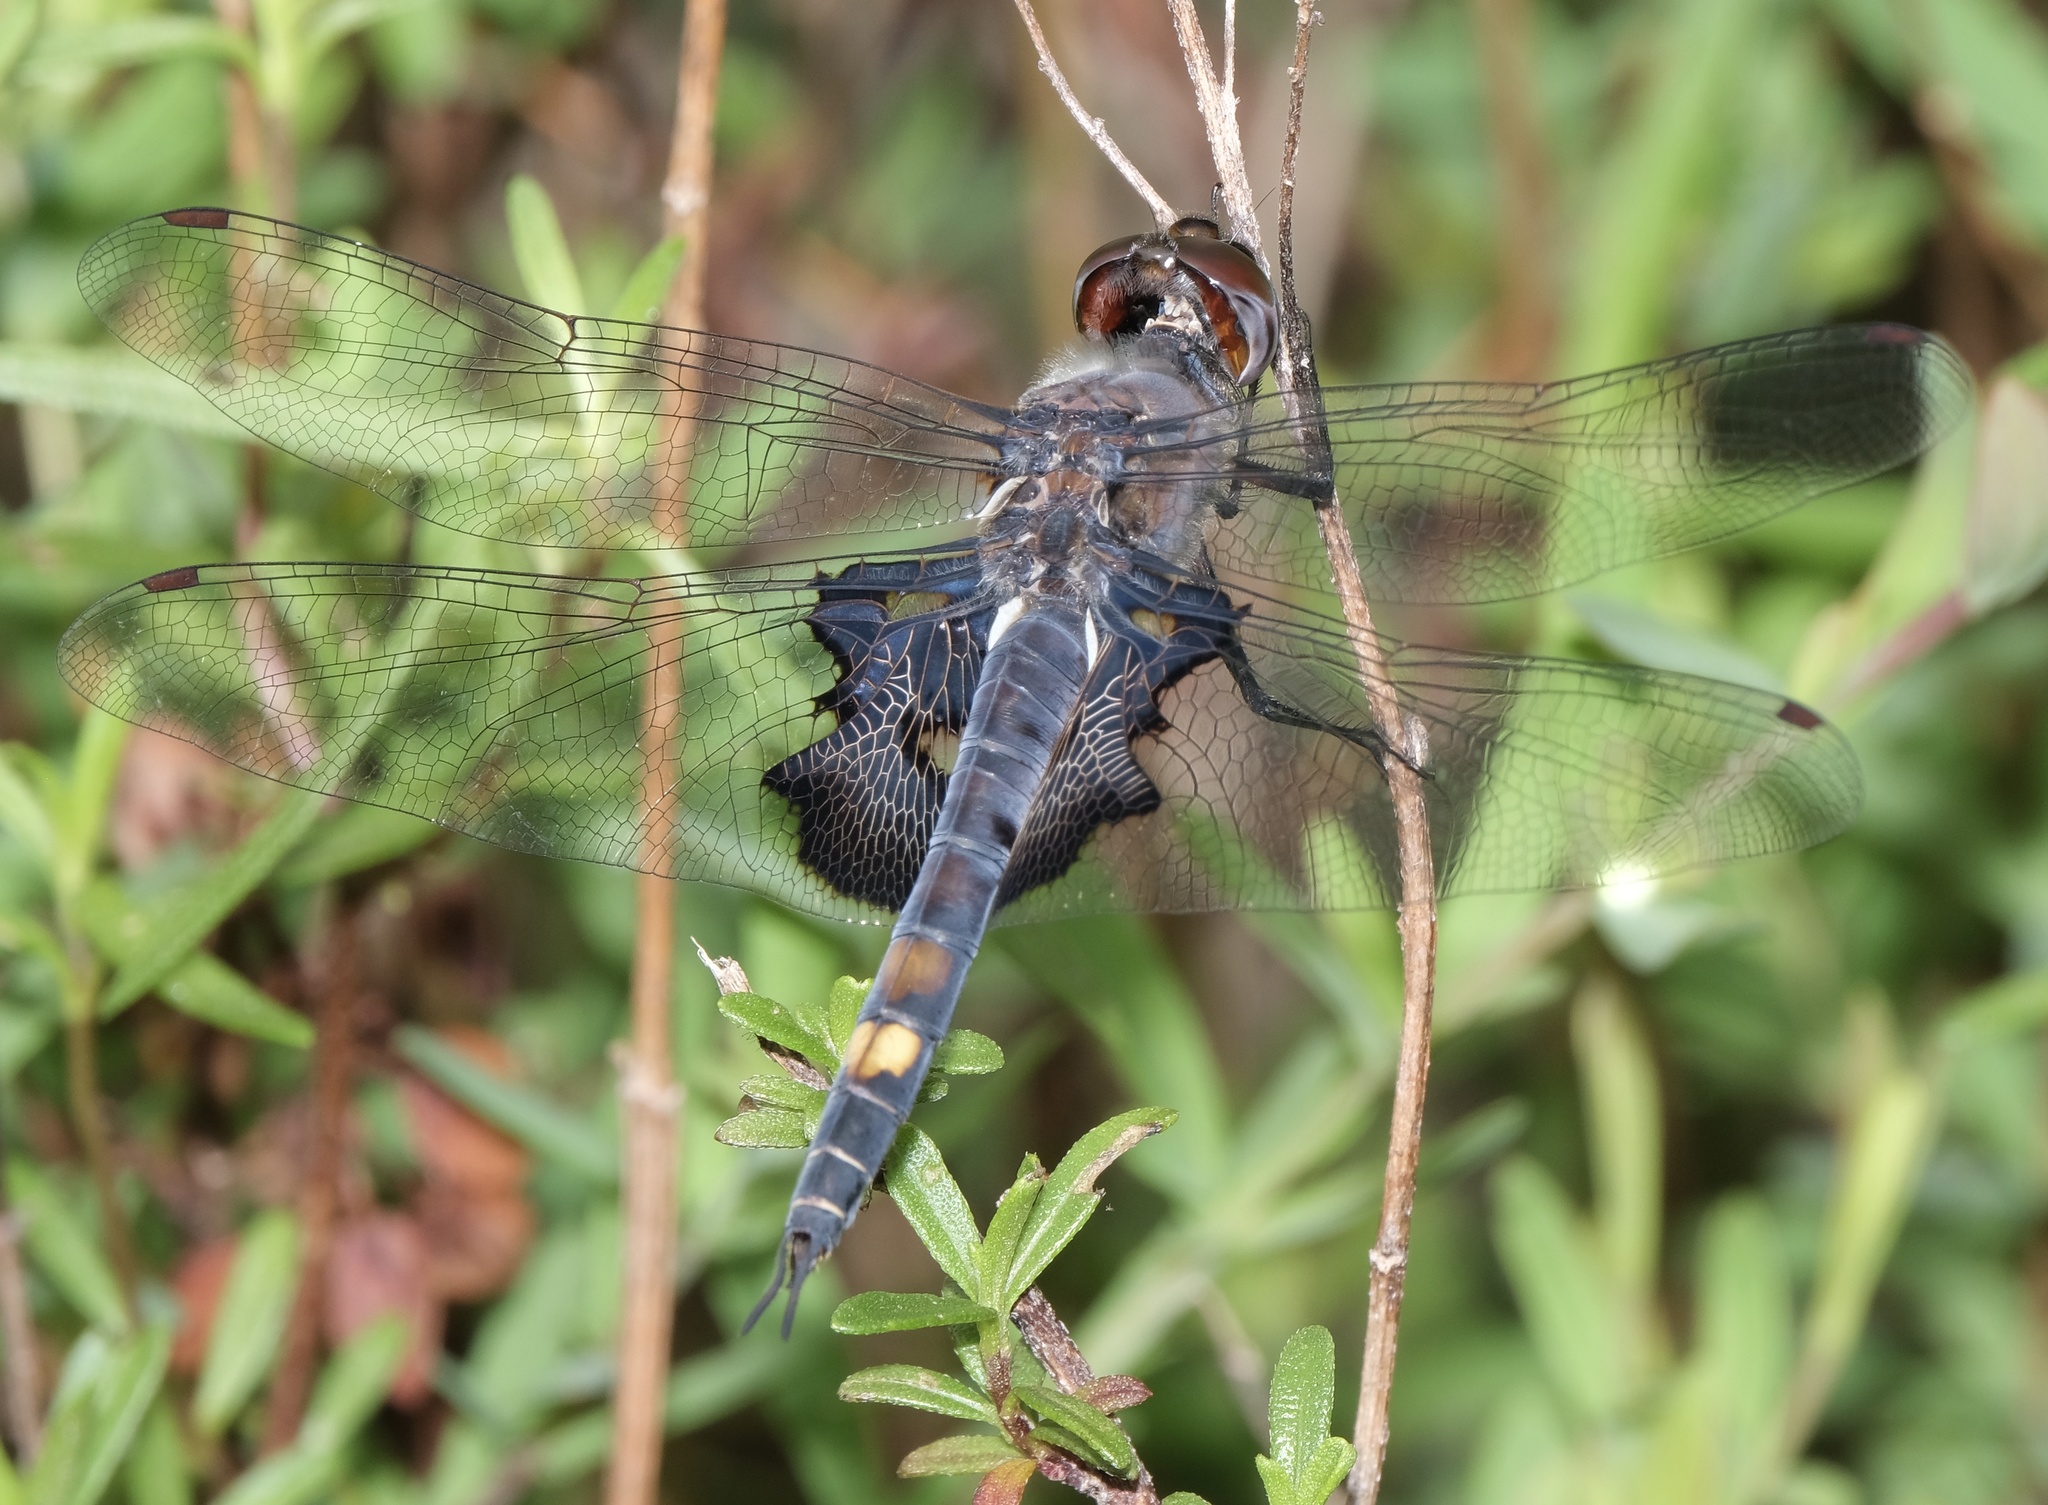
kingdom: Animalia
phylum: Arthropoda
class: Insecta
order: Odonata
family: Libellulidae
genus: Tramea
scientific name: Tramea lacerata
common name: Black saddlebags
